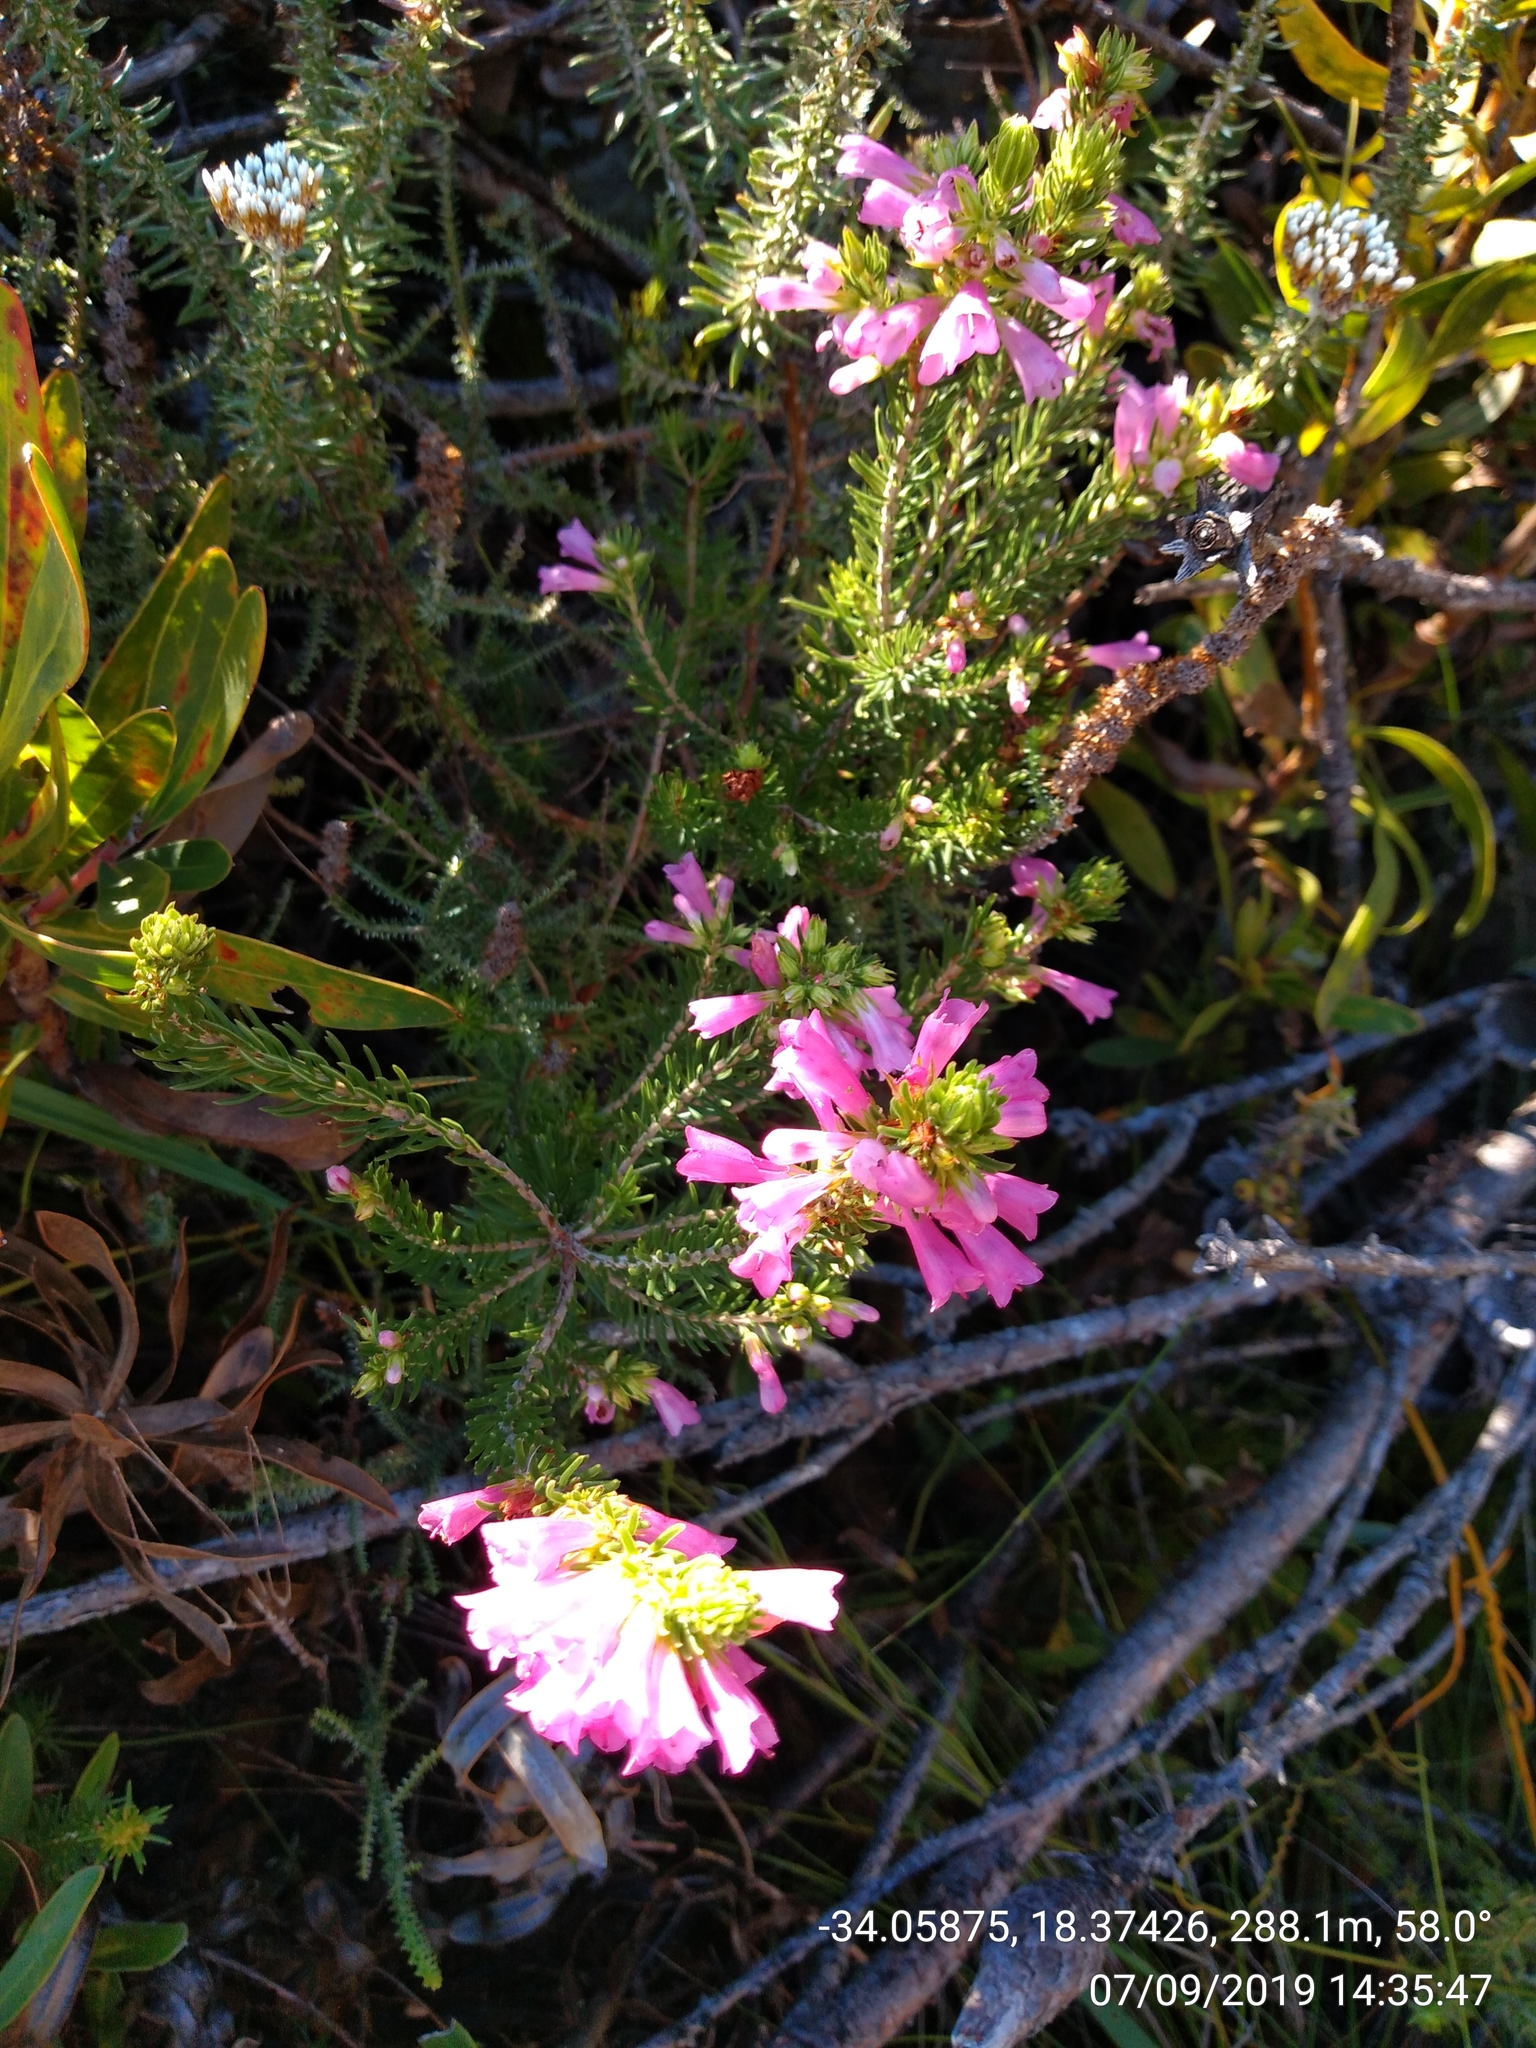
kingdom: Plantae
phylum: Tracheophyta
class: Magnoliopsida
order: Ericales
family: Ericaceae
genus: Erica
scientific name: Erica abietina
